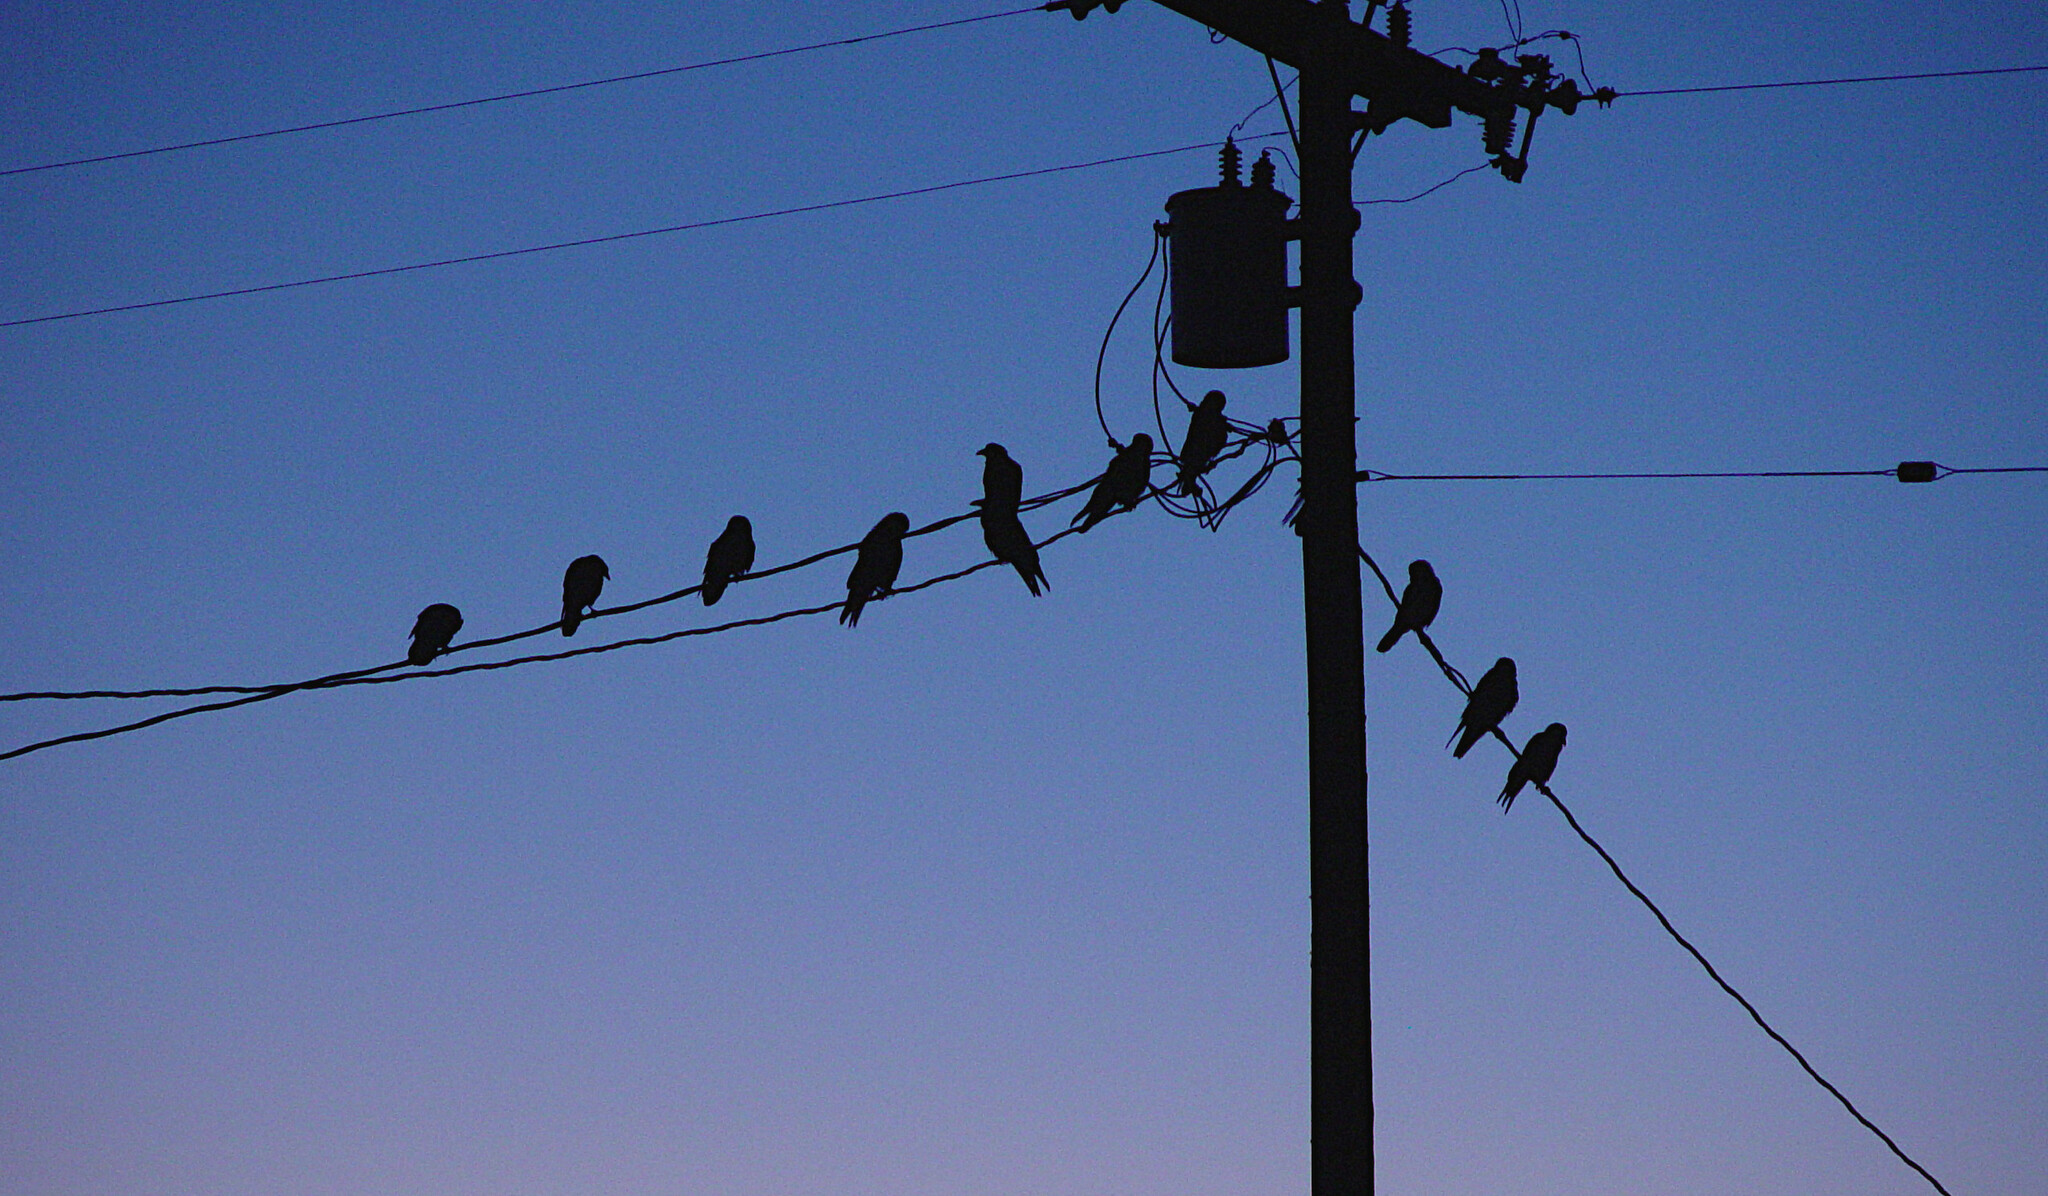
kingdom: Animalia
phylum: Chordata
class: Aves
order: Passeriformes
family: Corvidae
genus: Corvus
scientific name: Corvus corax
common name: Common raven
